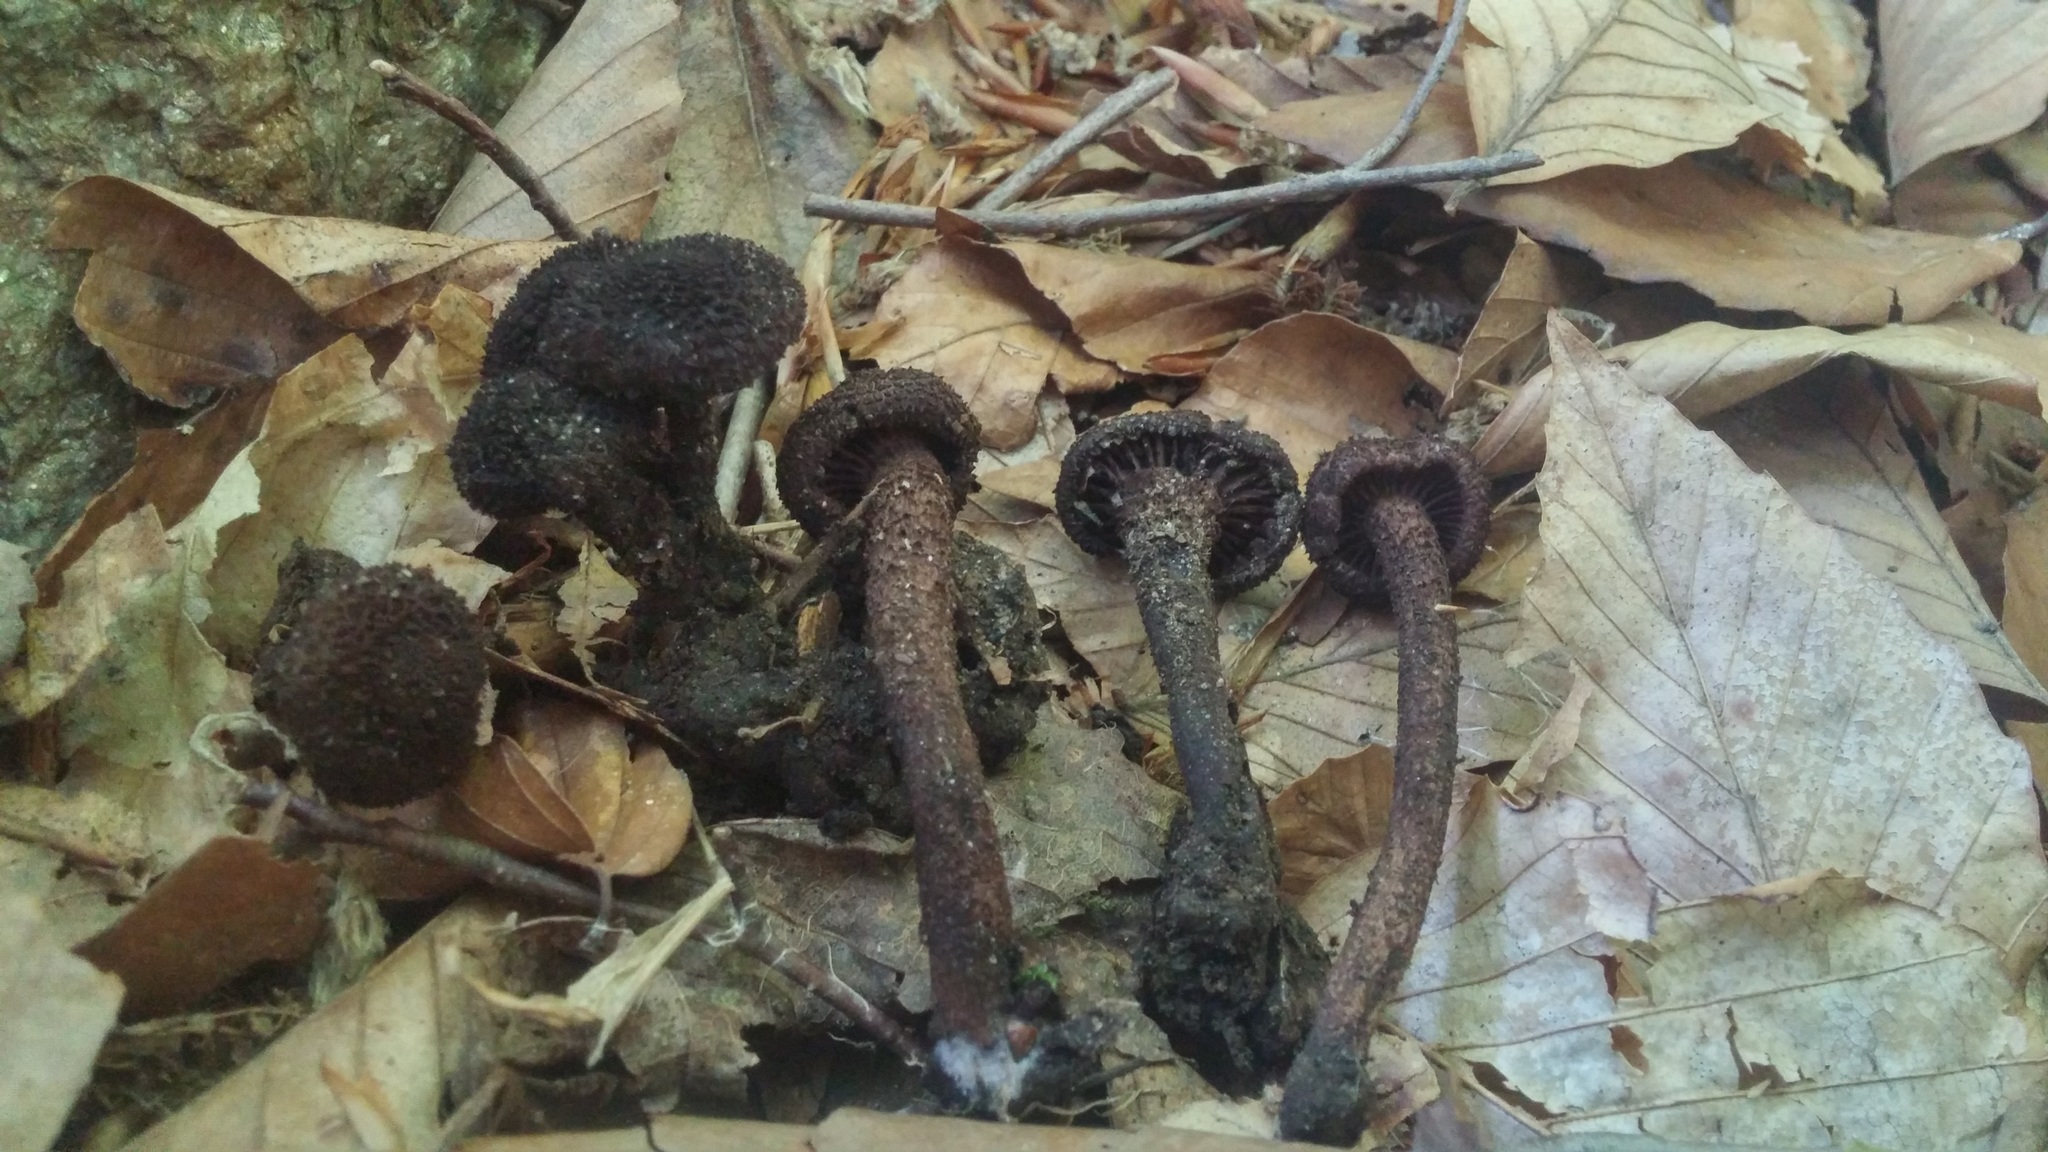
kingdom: Fungi
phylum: Basidiomycota
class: Agaricomycetes
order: Agaricales
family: Inocybaceae
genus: Inocybe
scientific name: Inocybe tahquamenonensis
